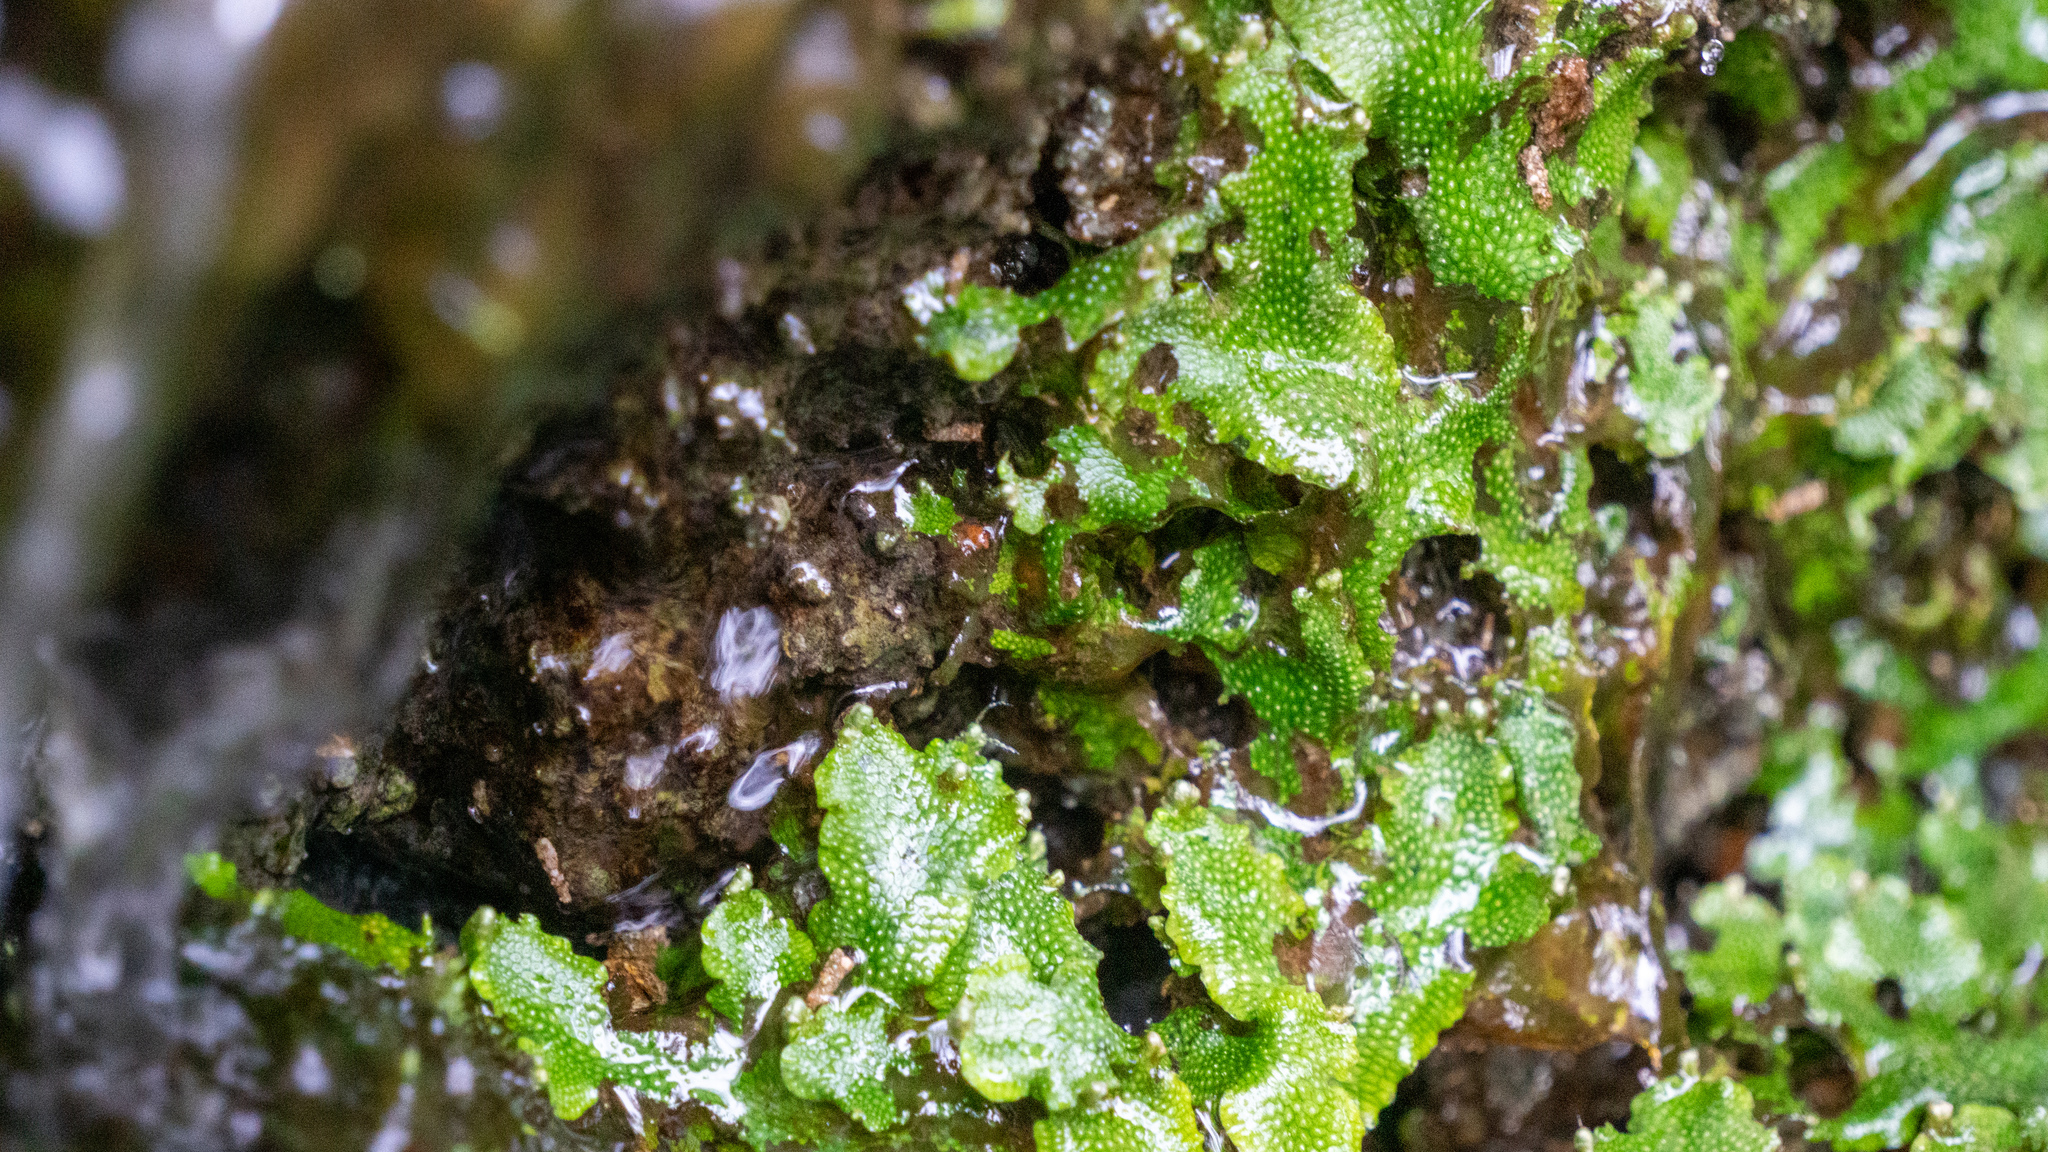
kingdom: Plantae
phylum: Marchantiophyta
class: Marchantiopsida
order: Marchantiales
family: Conocephalaceae
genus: Conocephalum
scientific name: Conocephalum salebrosum
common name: Cat-tongue liverwort
